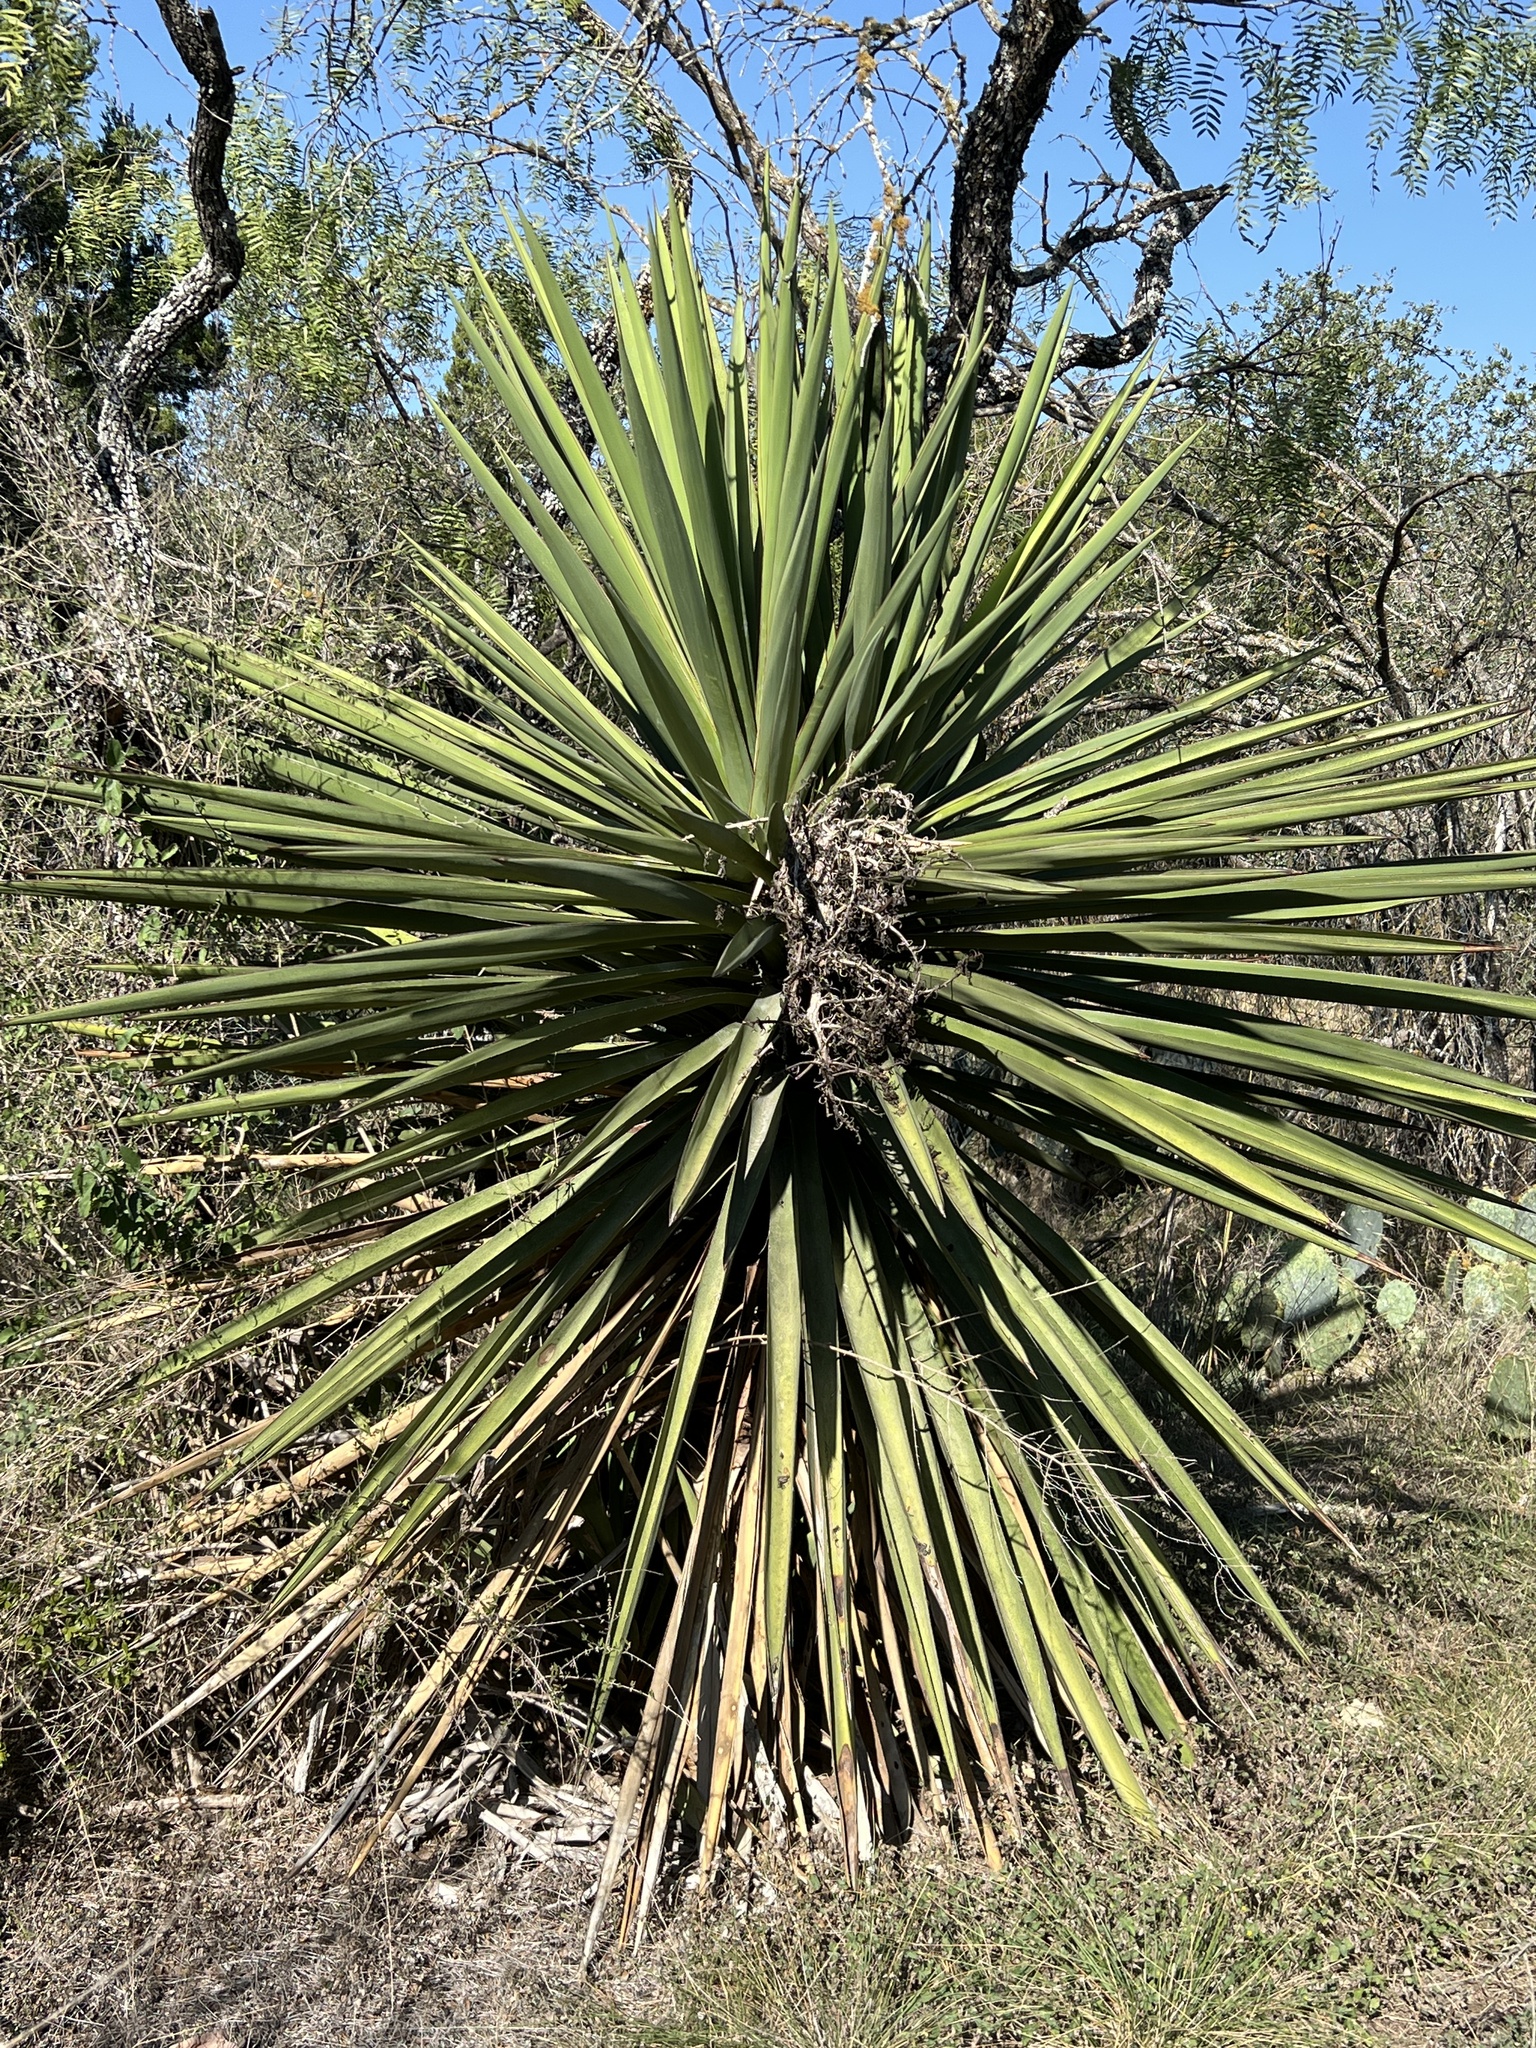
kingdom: Plantae
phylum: Tracheophyta
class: Liliopsida
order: Asparagales
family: Asparagaceae
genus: Yucca
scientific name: Yucca treculiana
